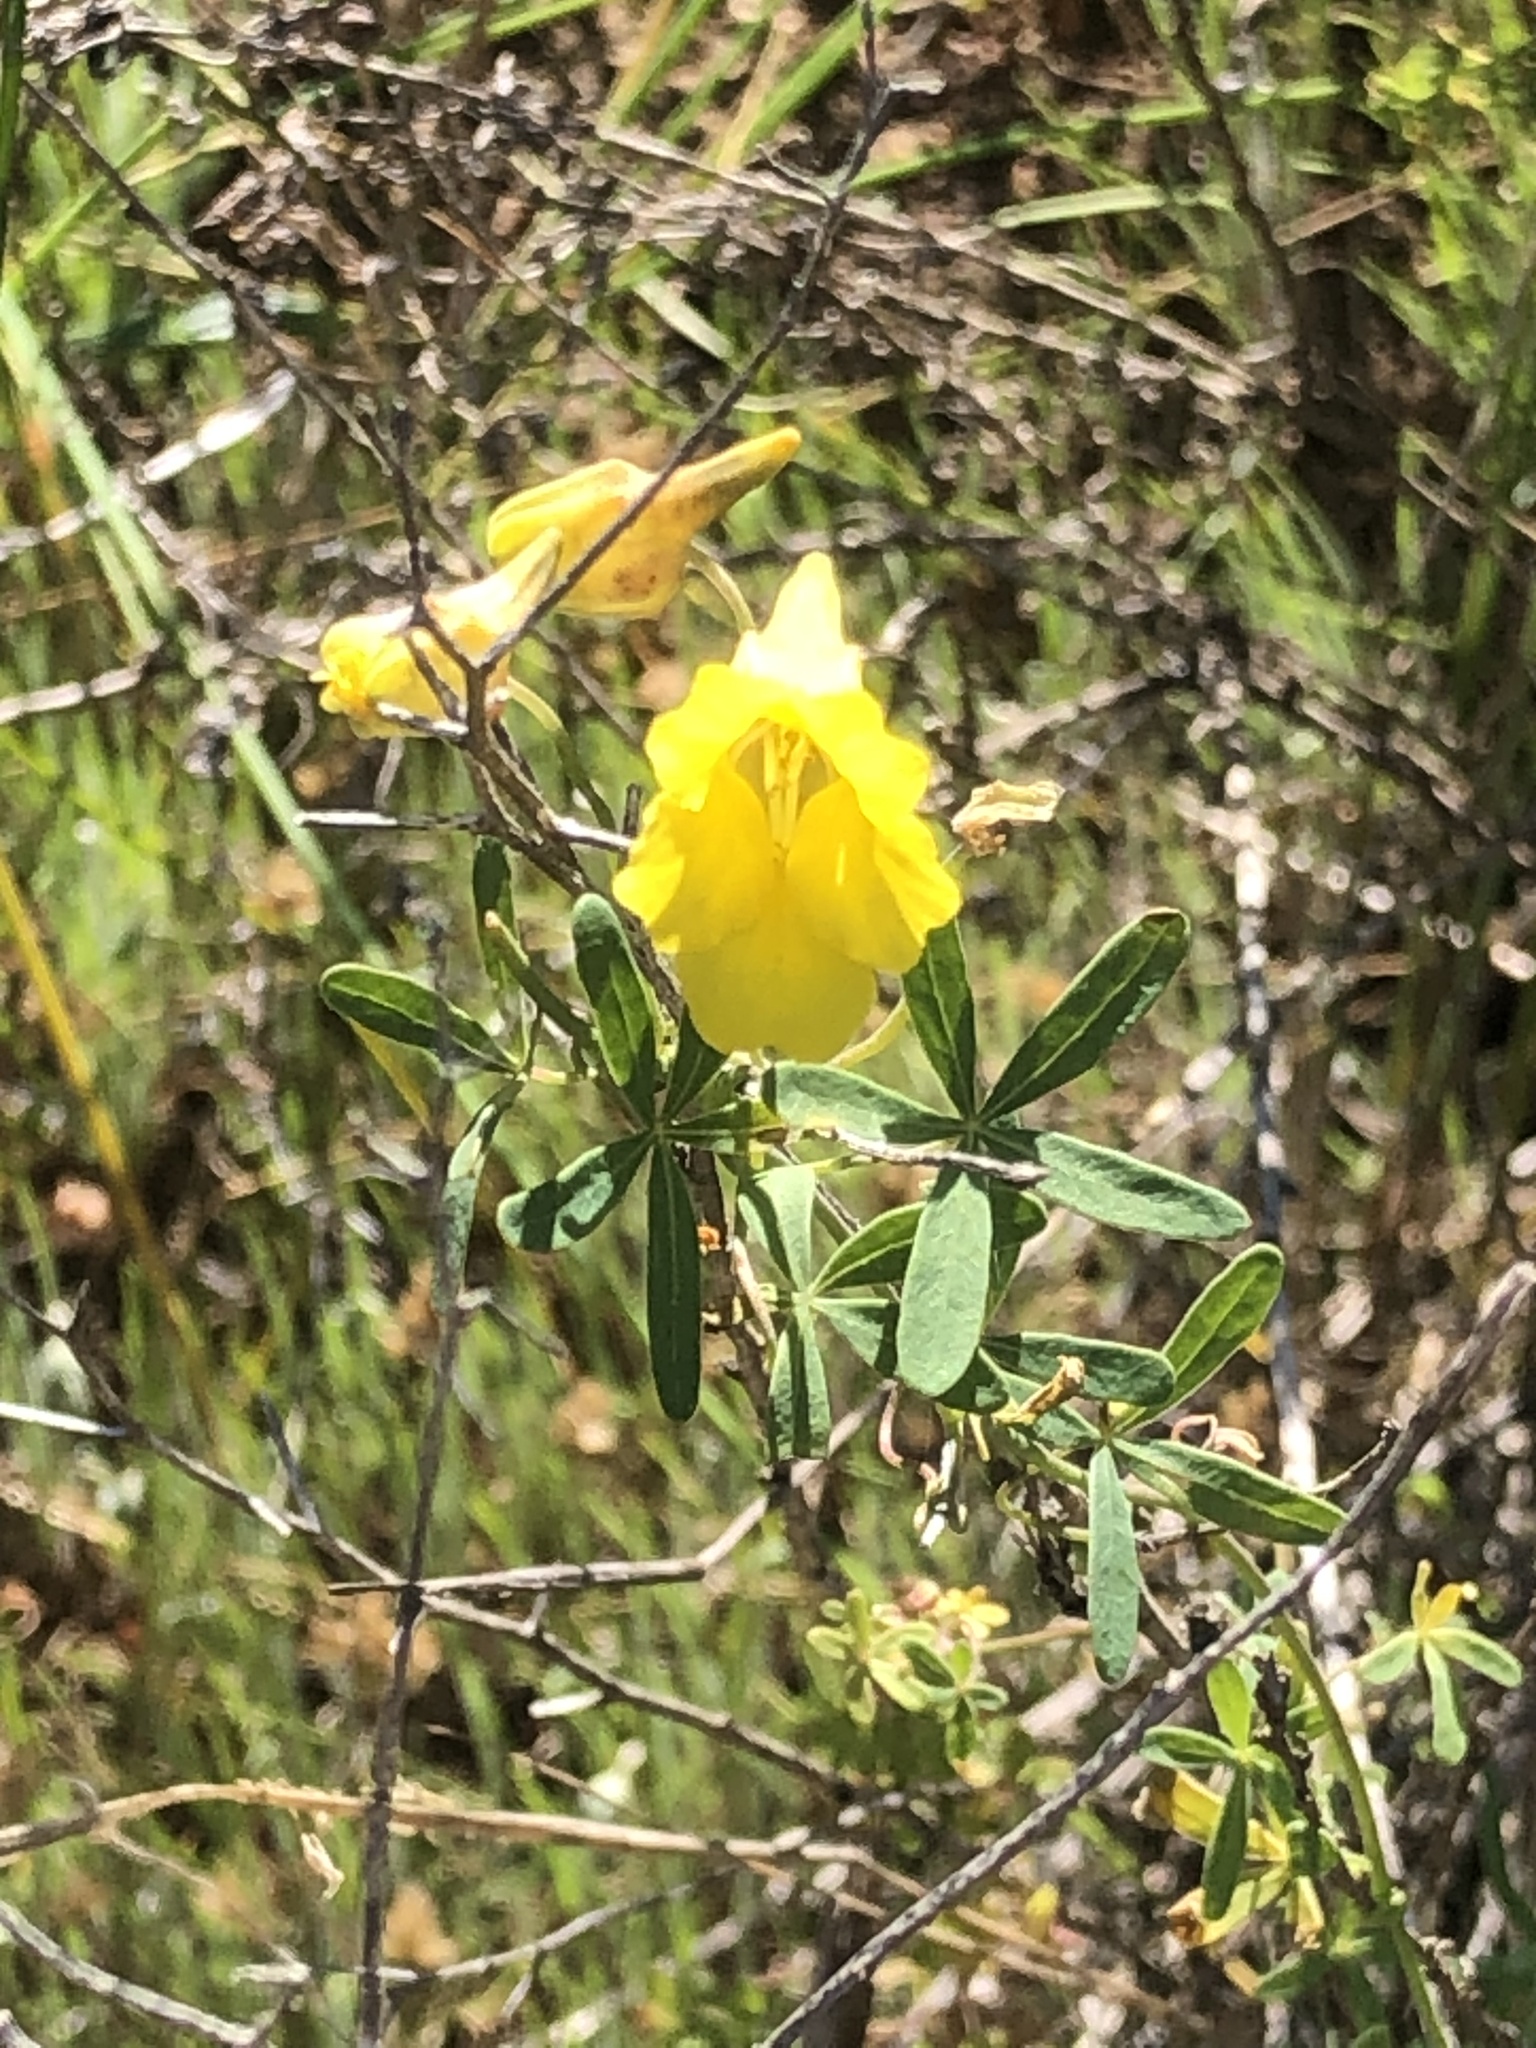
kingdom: Plantae
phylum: Tracheophyta
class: Magnoliopsida
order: Brassicales
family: Tropaeolaceae
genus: Tropaeolum
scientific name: Tropaeolum hookerianum
